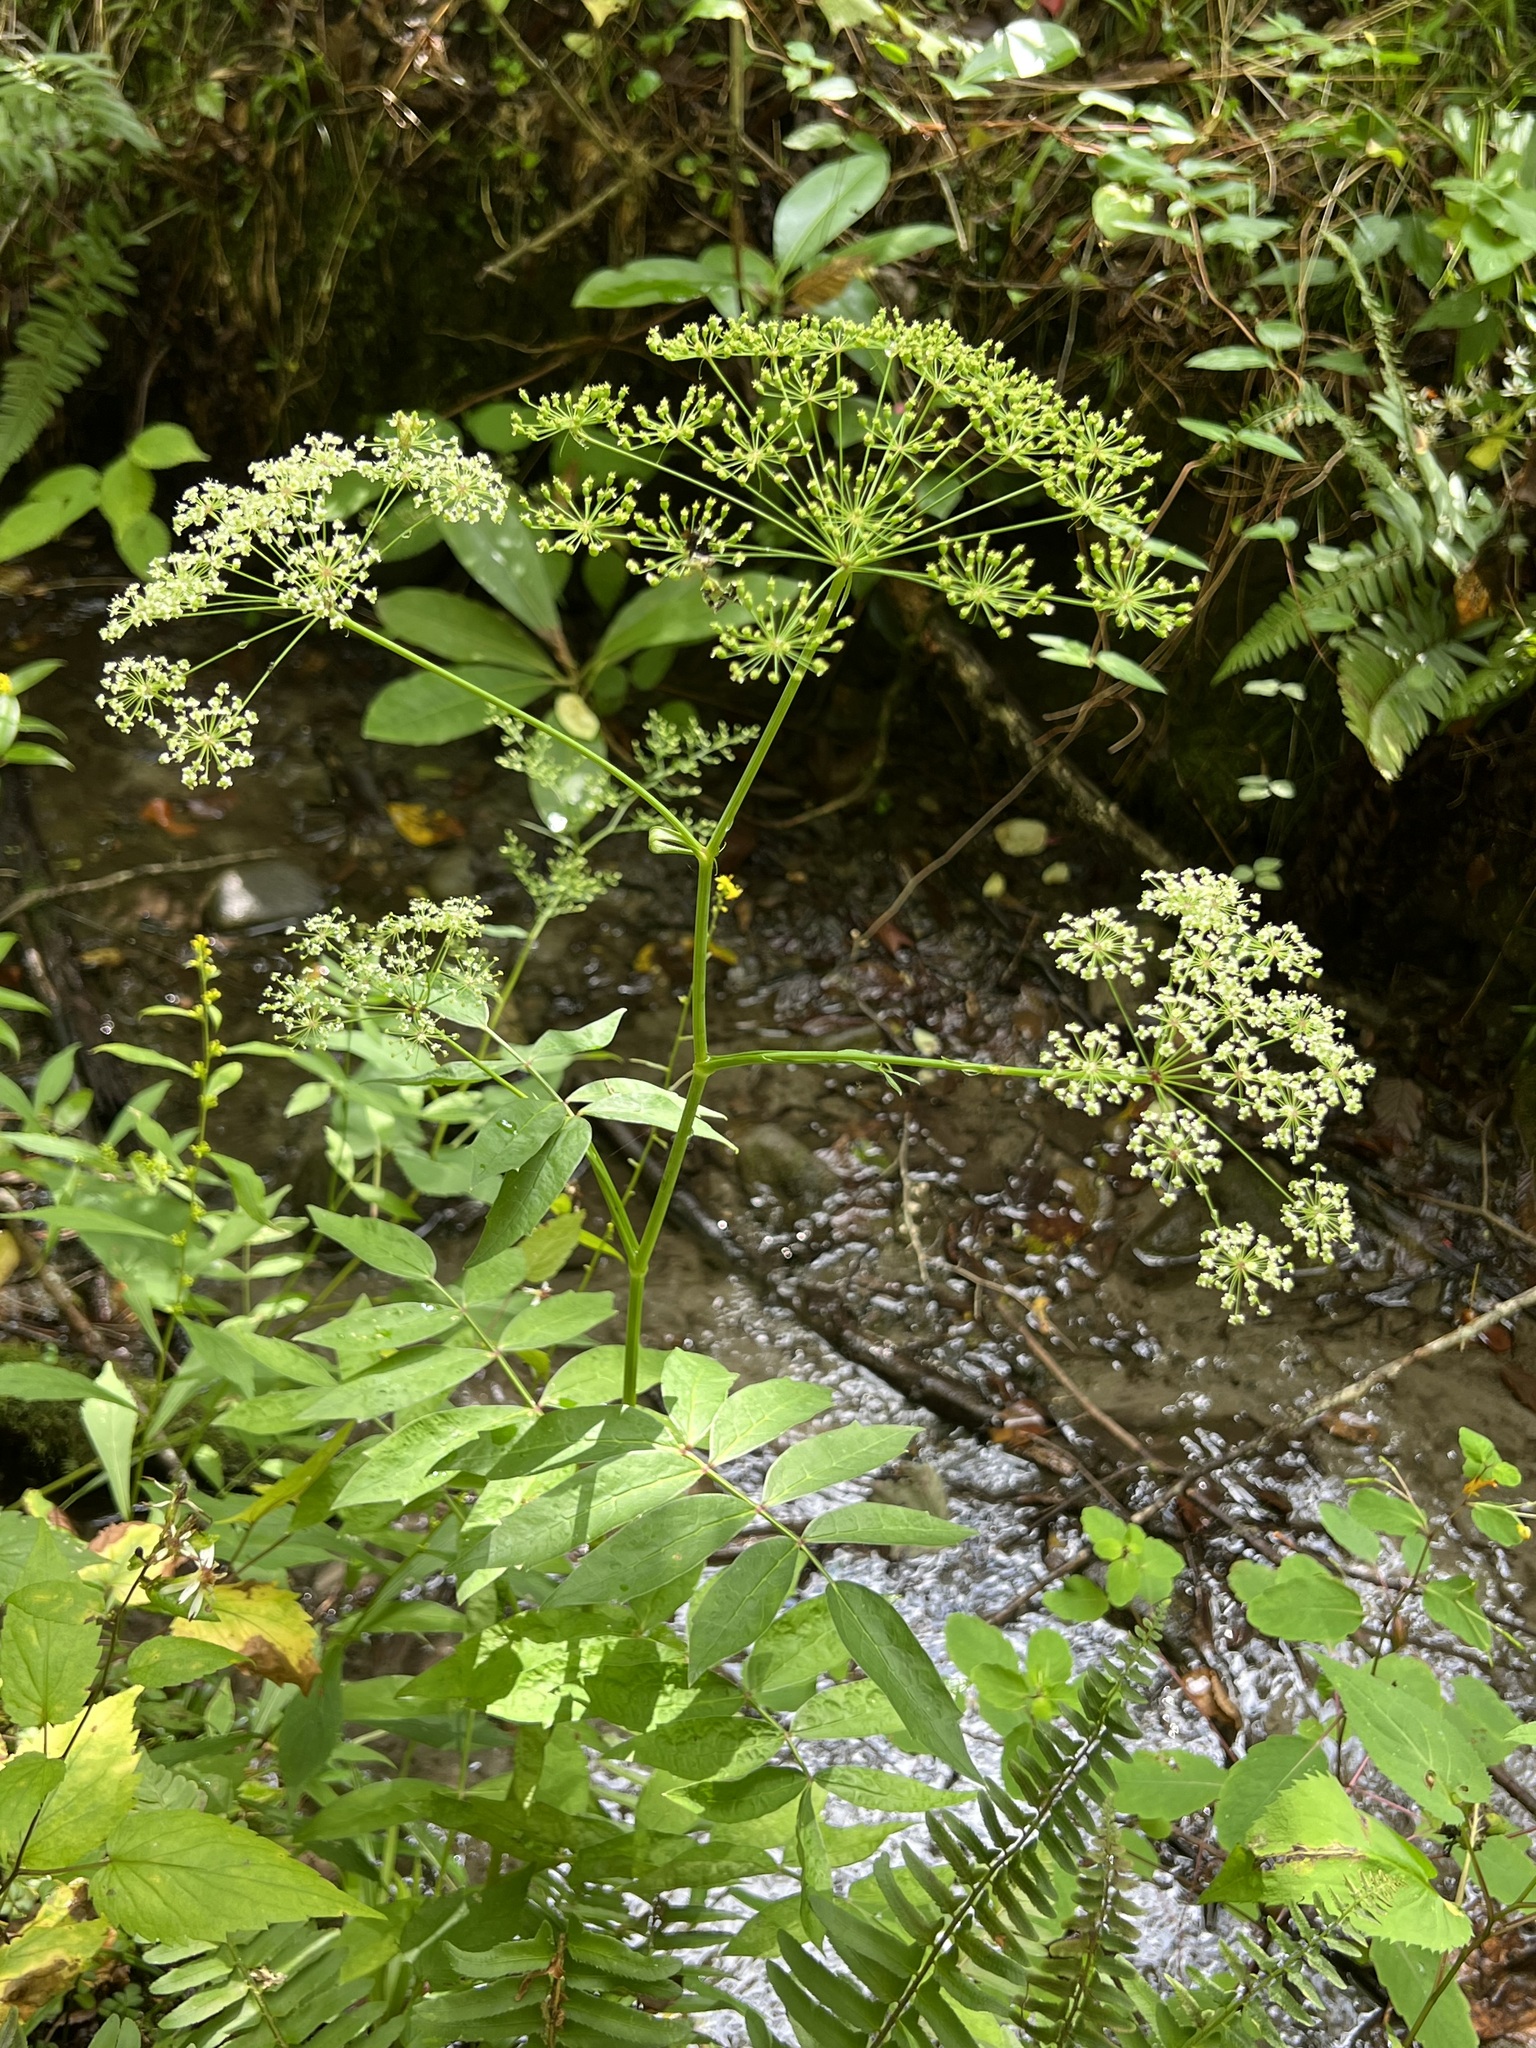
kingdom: Plantae
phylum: Tracheophyta
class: Magnoliopsida
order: Apiales
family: Apiaceae
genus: Oxypolis
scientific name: Oxypolis rigidior
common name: Cowbane
